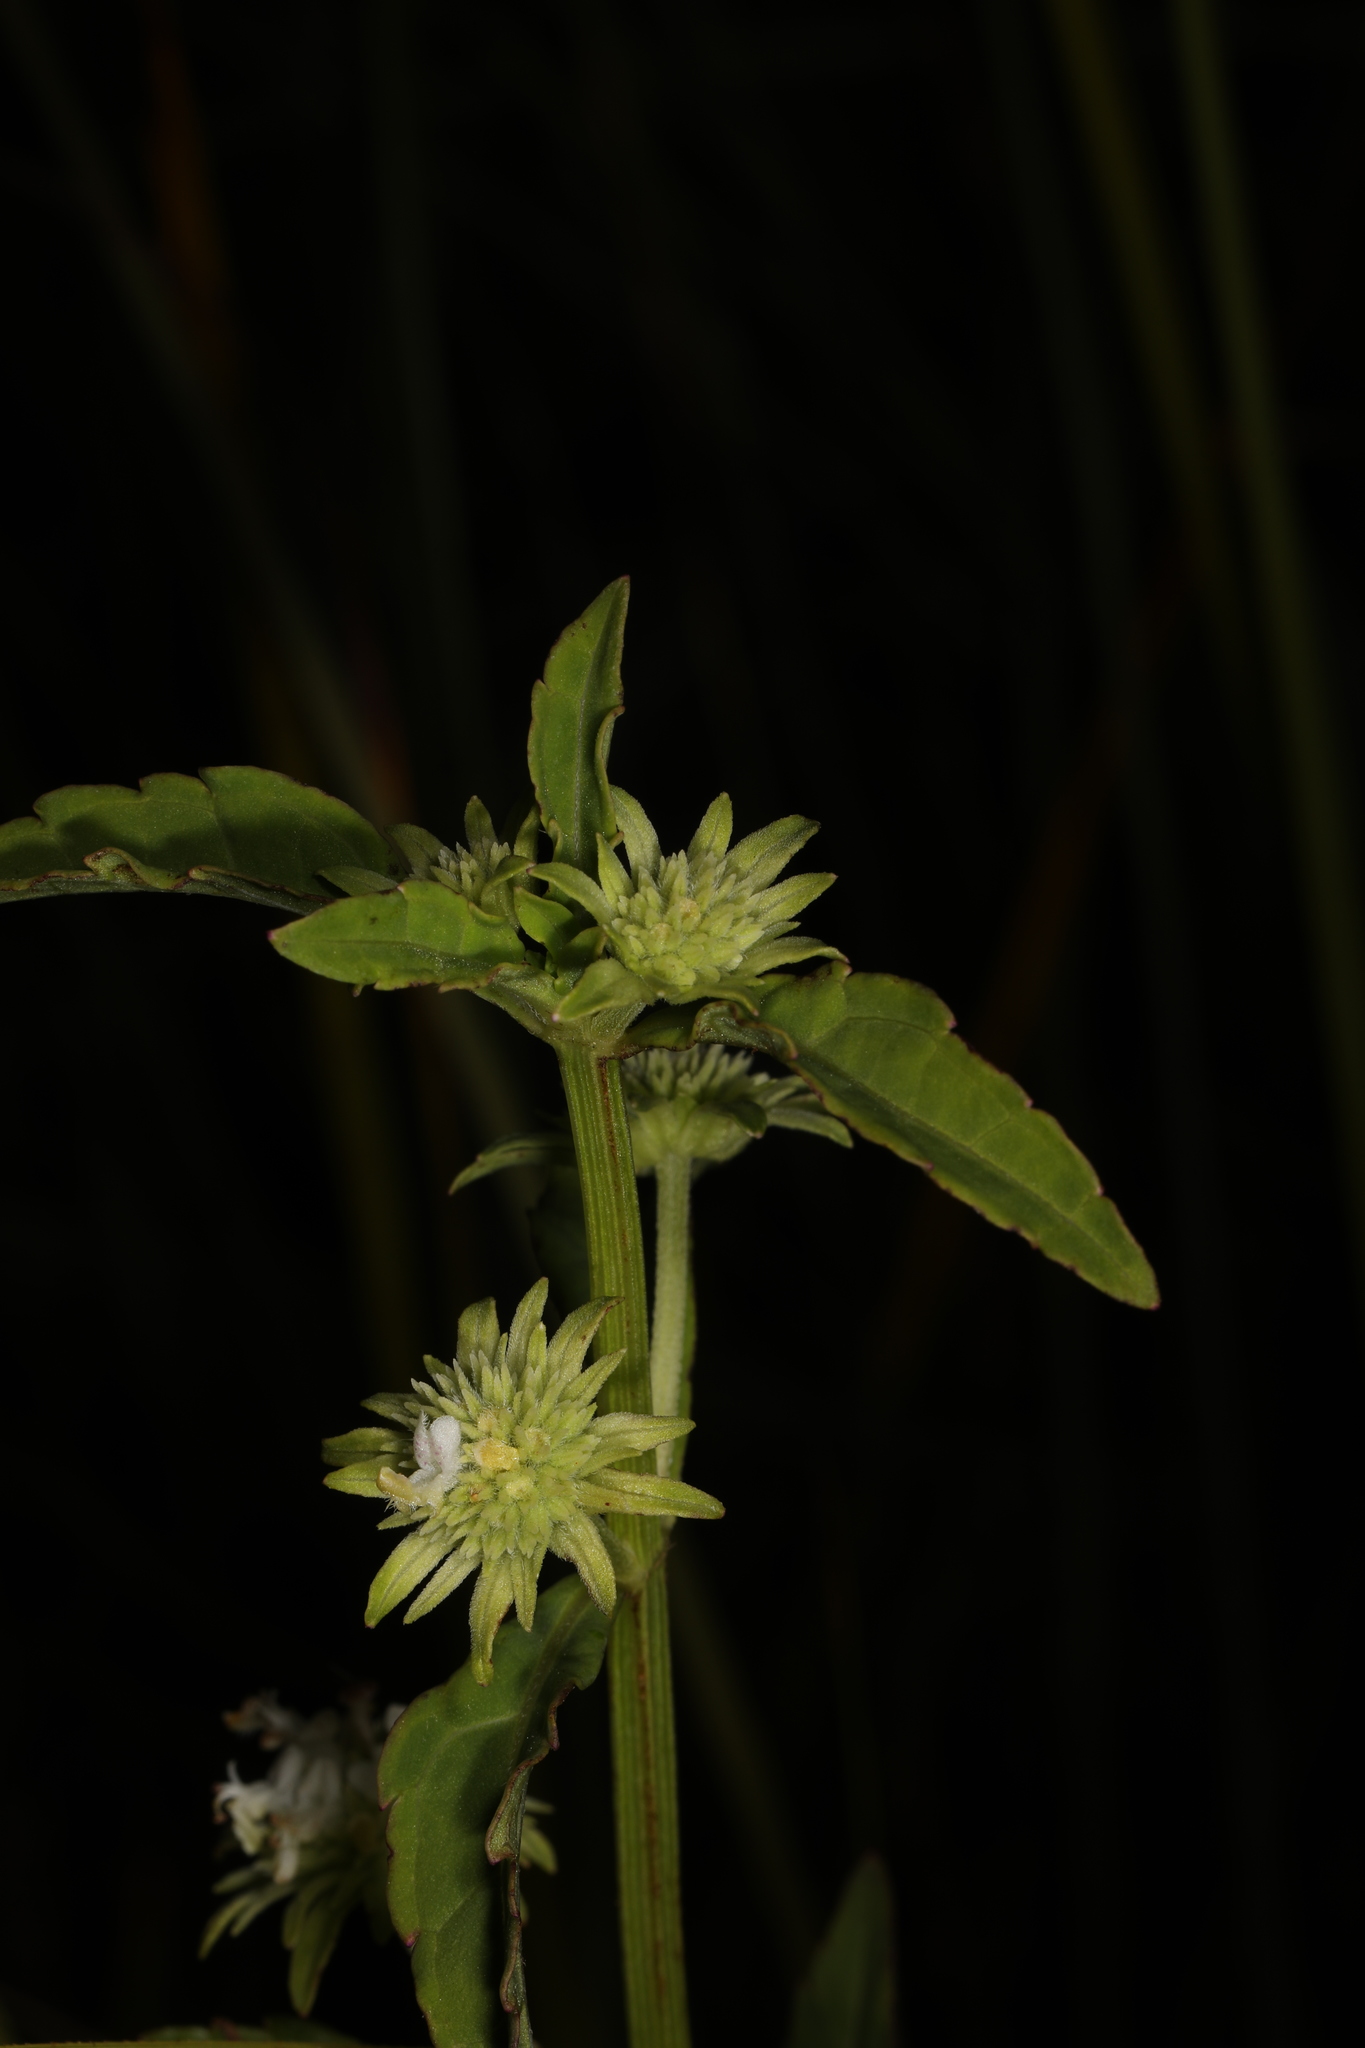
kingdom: Plantae
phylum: Tracheophyta
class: Magnoliopsida
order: Lamiales
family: Lamiaceae
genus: Hyptis
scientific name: Hyptis alata
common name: Cluster bush-mint
